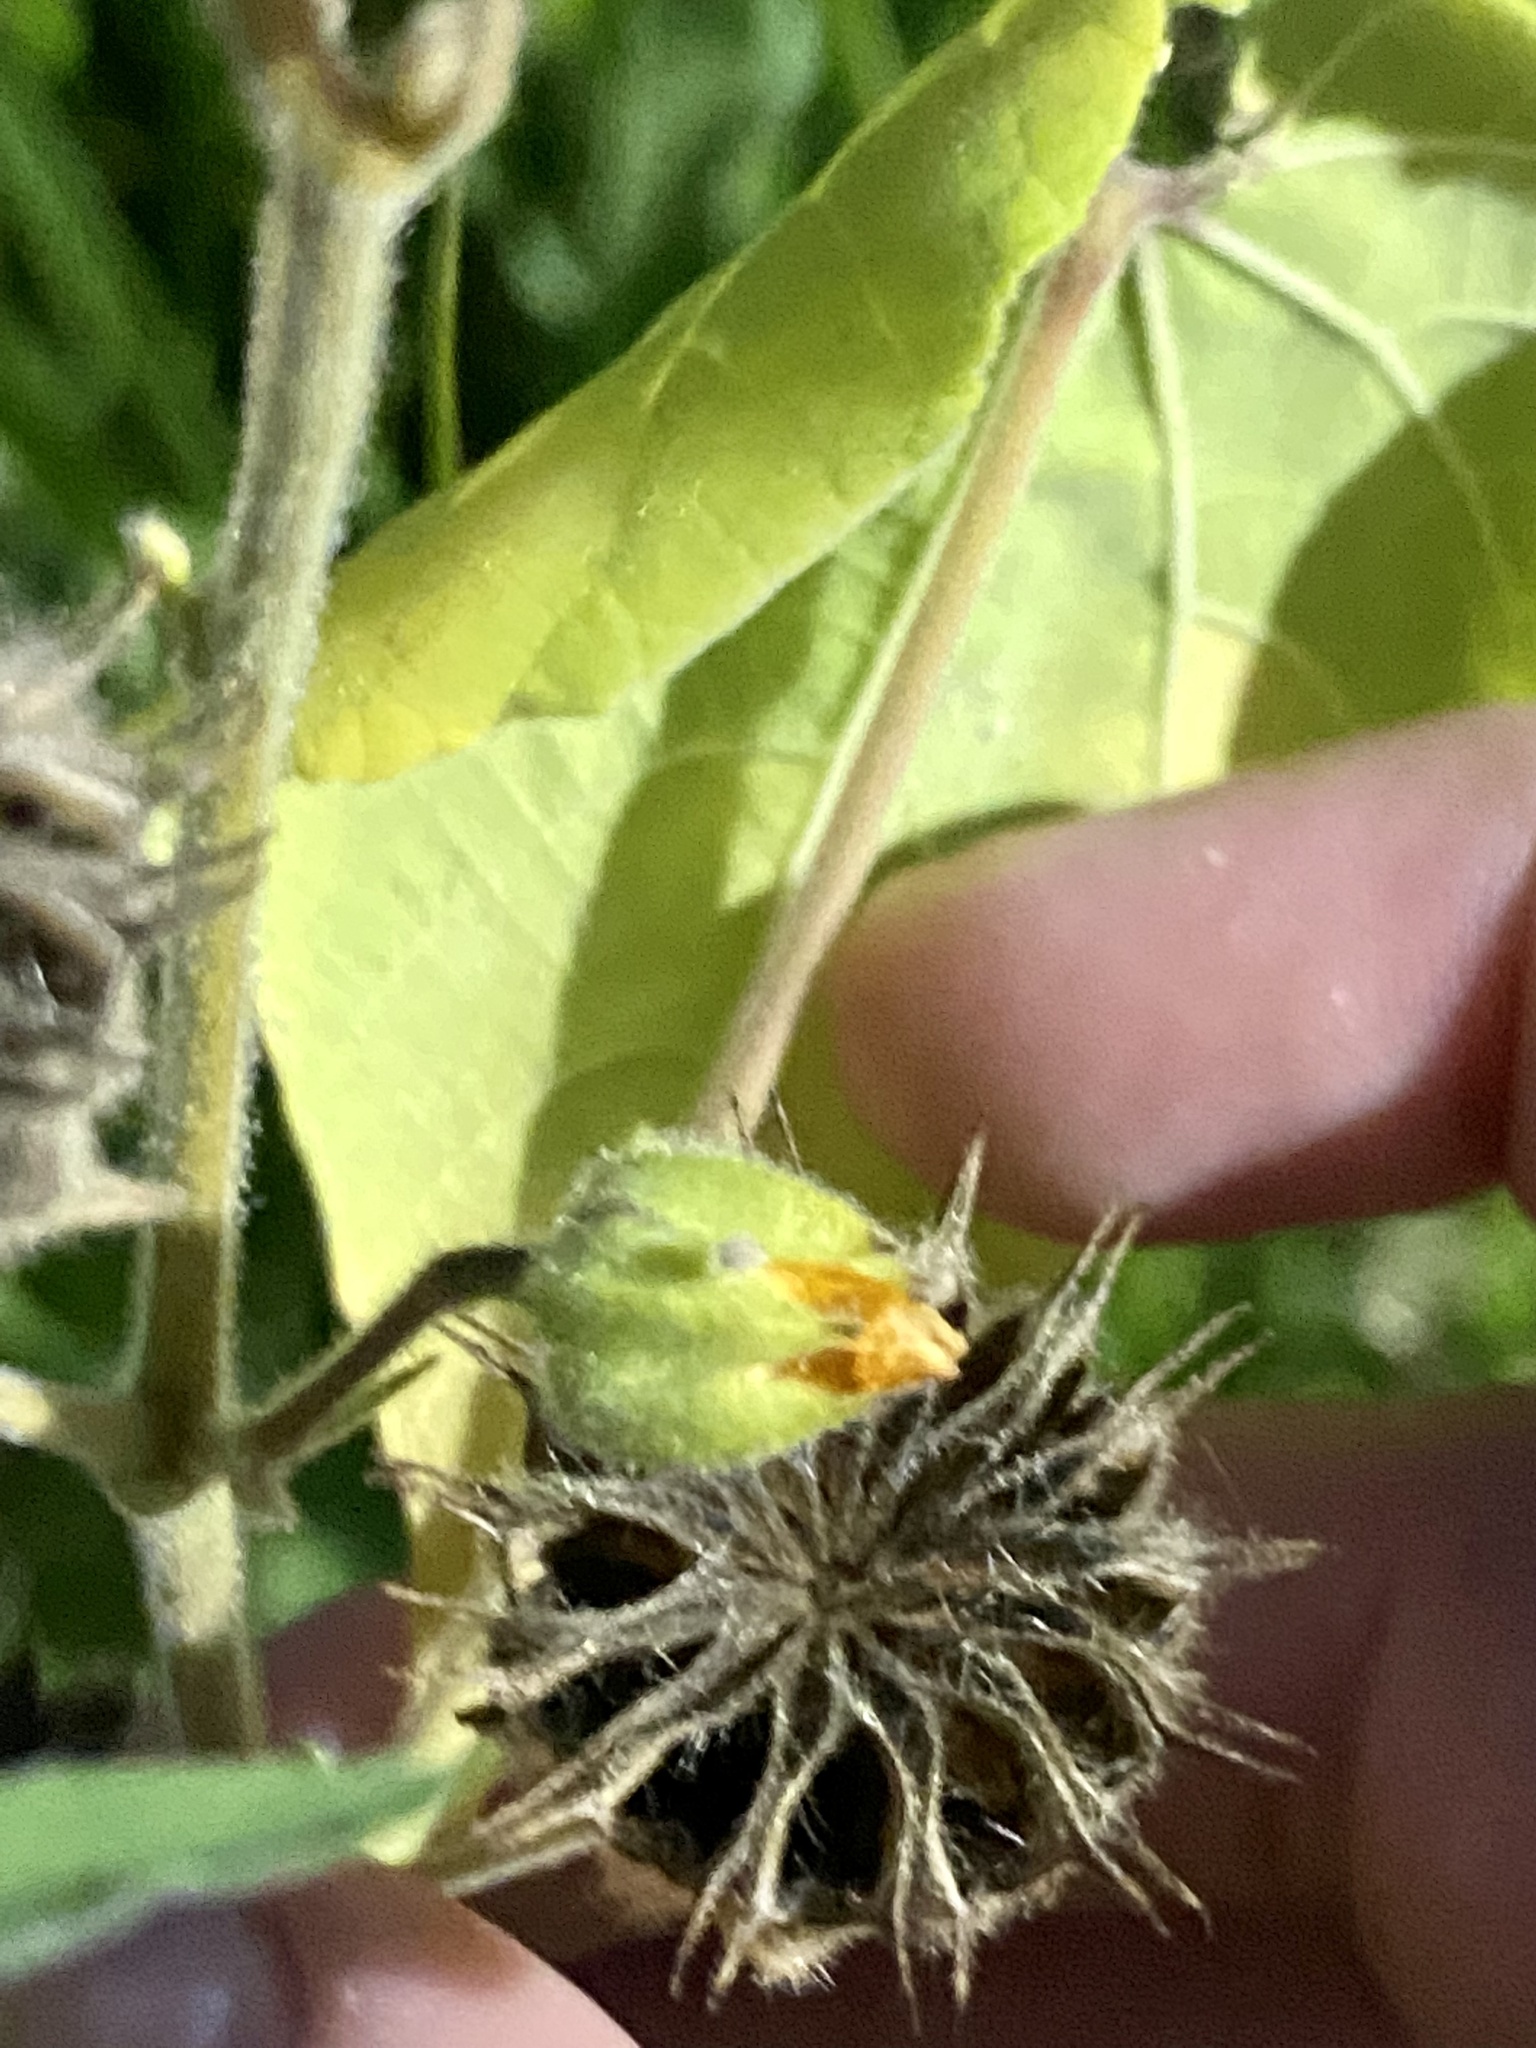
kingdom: Plantae
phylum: Tracheophyta
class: Magnoliopsida
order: Malvales
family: Malvaceae
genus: Abutilon
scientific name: Abutilon theophrasti
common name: Velvetleaf
